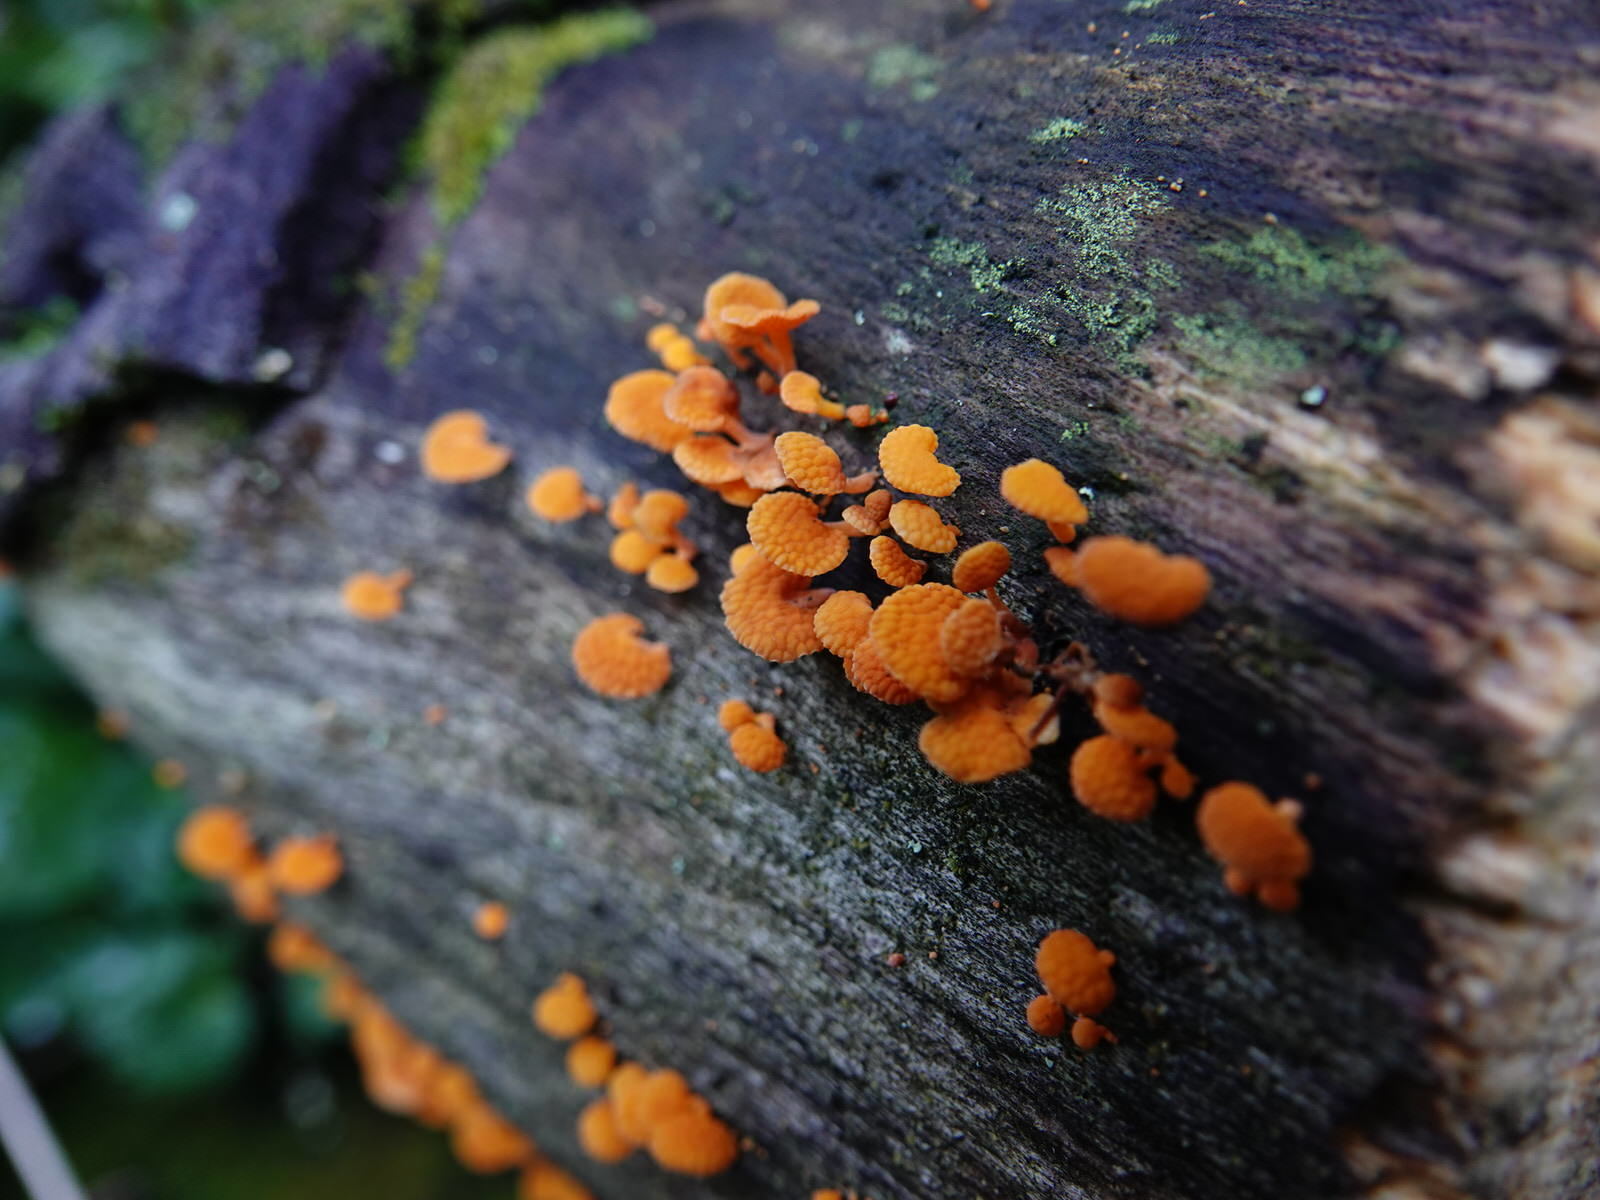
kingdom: Fungi
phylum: Basidiomycota
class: Agaricomycetes
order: Agaricales
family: Mycenaceae
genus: Favolaschia
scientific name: Favolaschia claudopus
